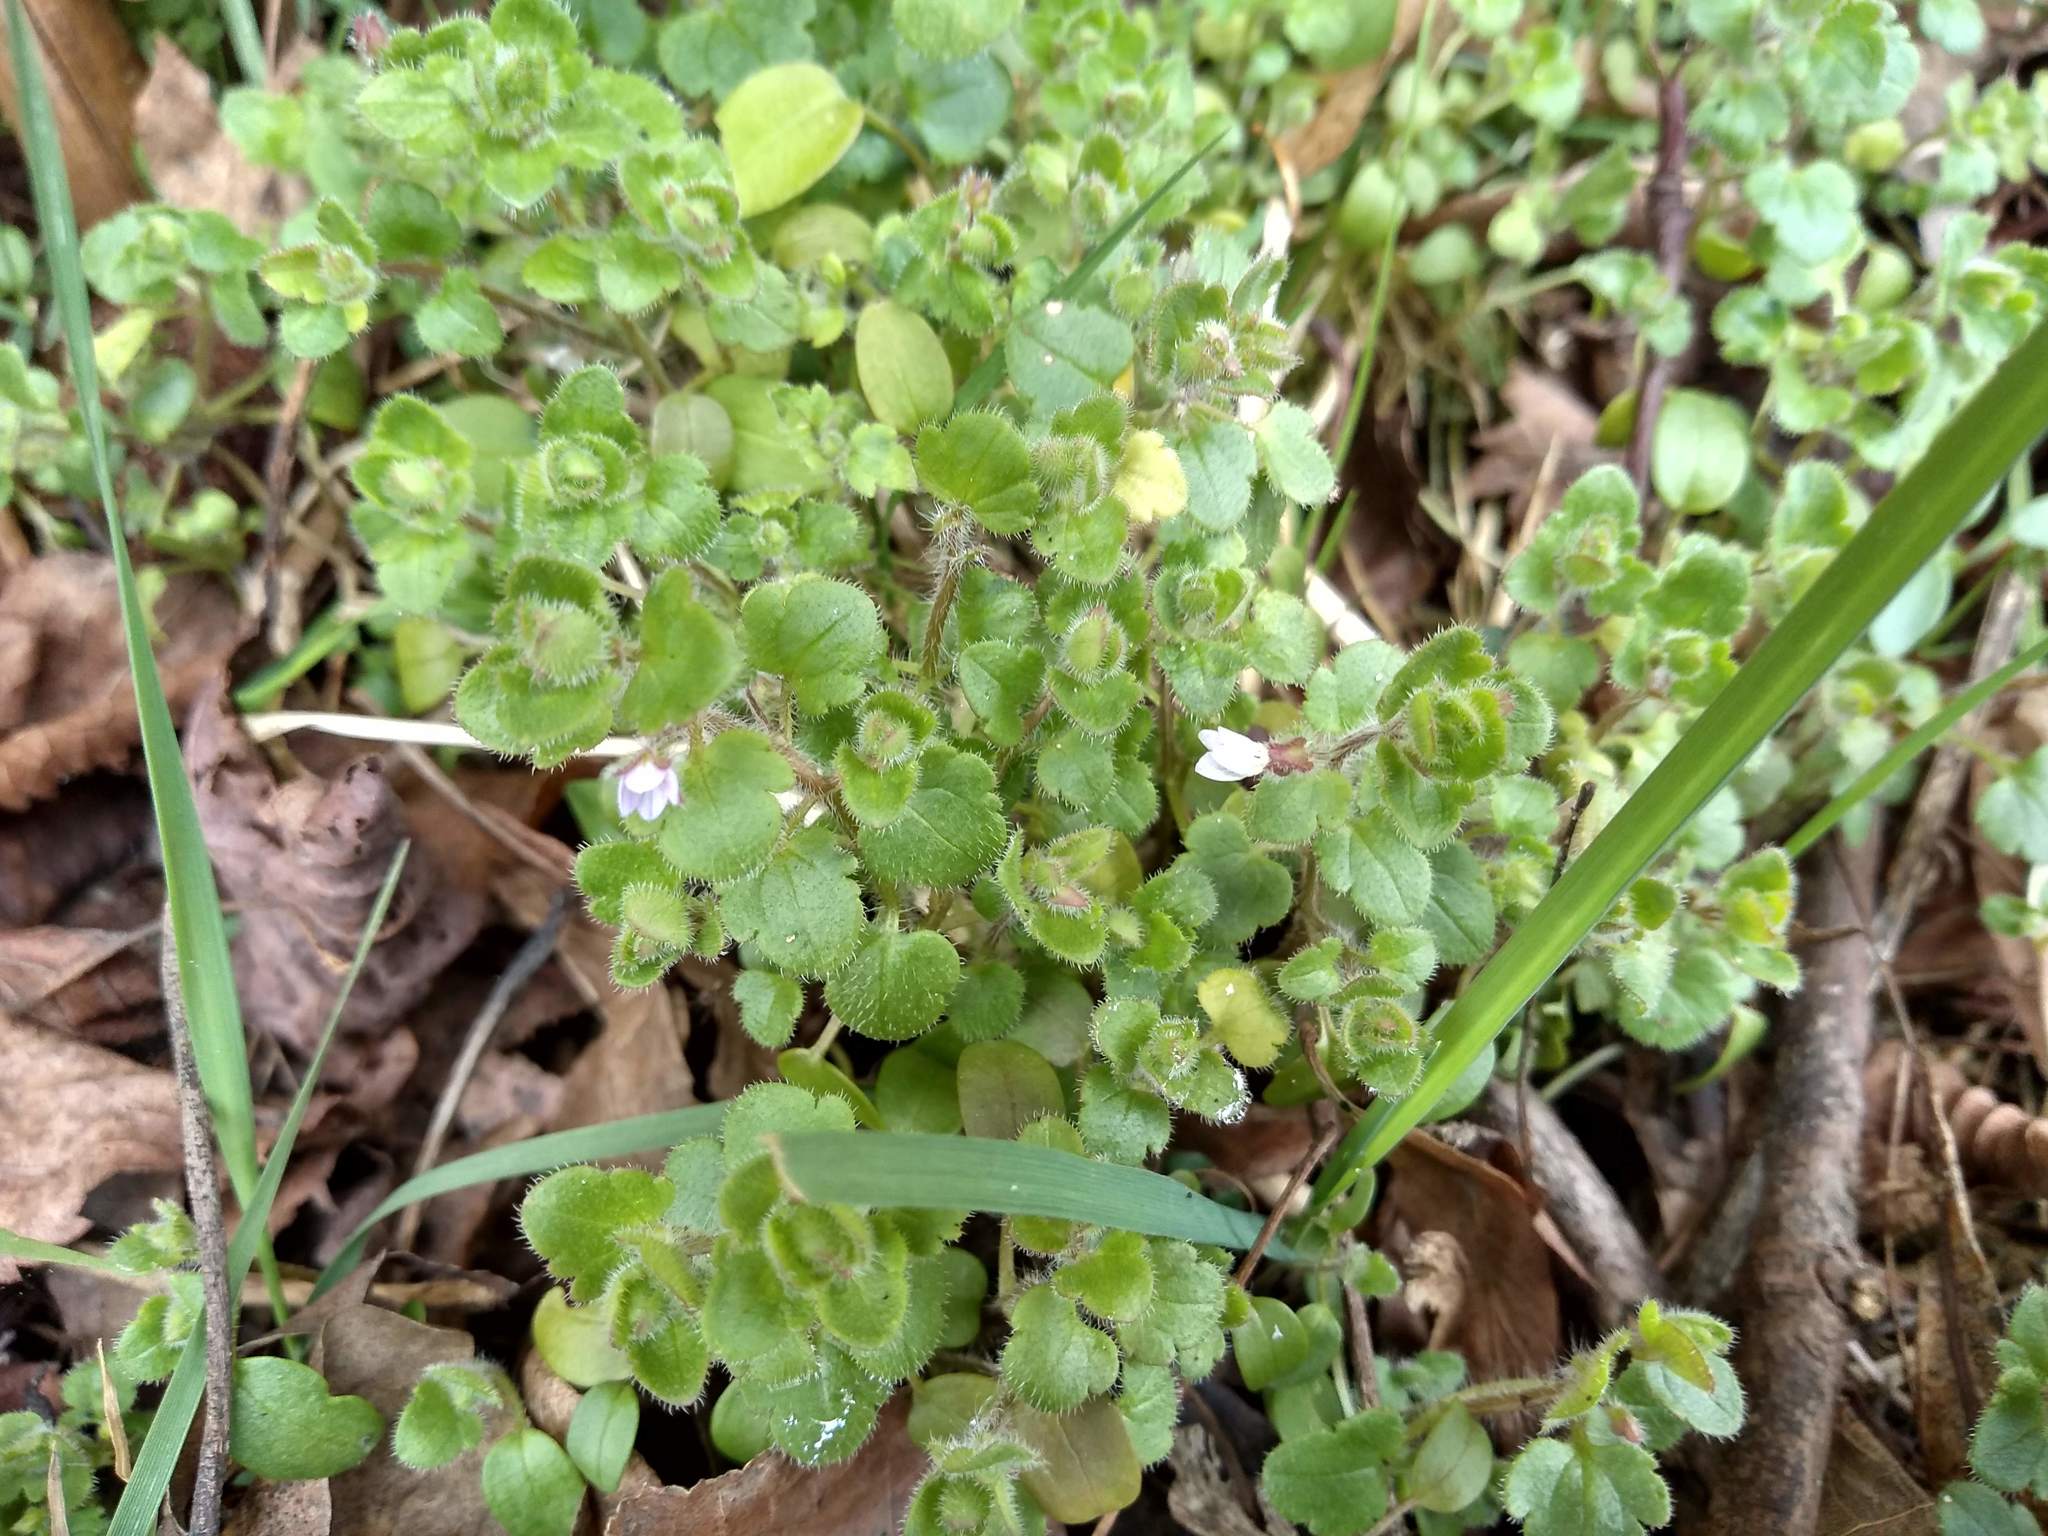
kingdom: Plantae
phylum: Tracheophyta
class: Magnoliopsida
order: Lamiales
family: Plantaginaceae
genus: Veronica
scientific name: Veronica sublobata
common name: False ivy-leaved speedwell
